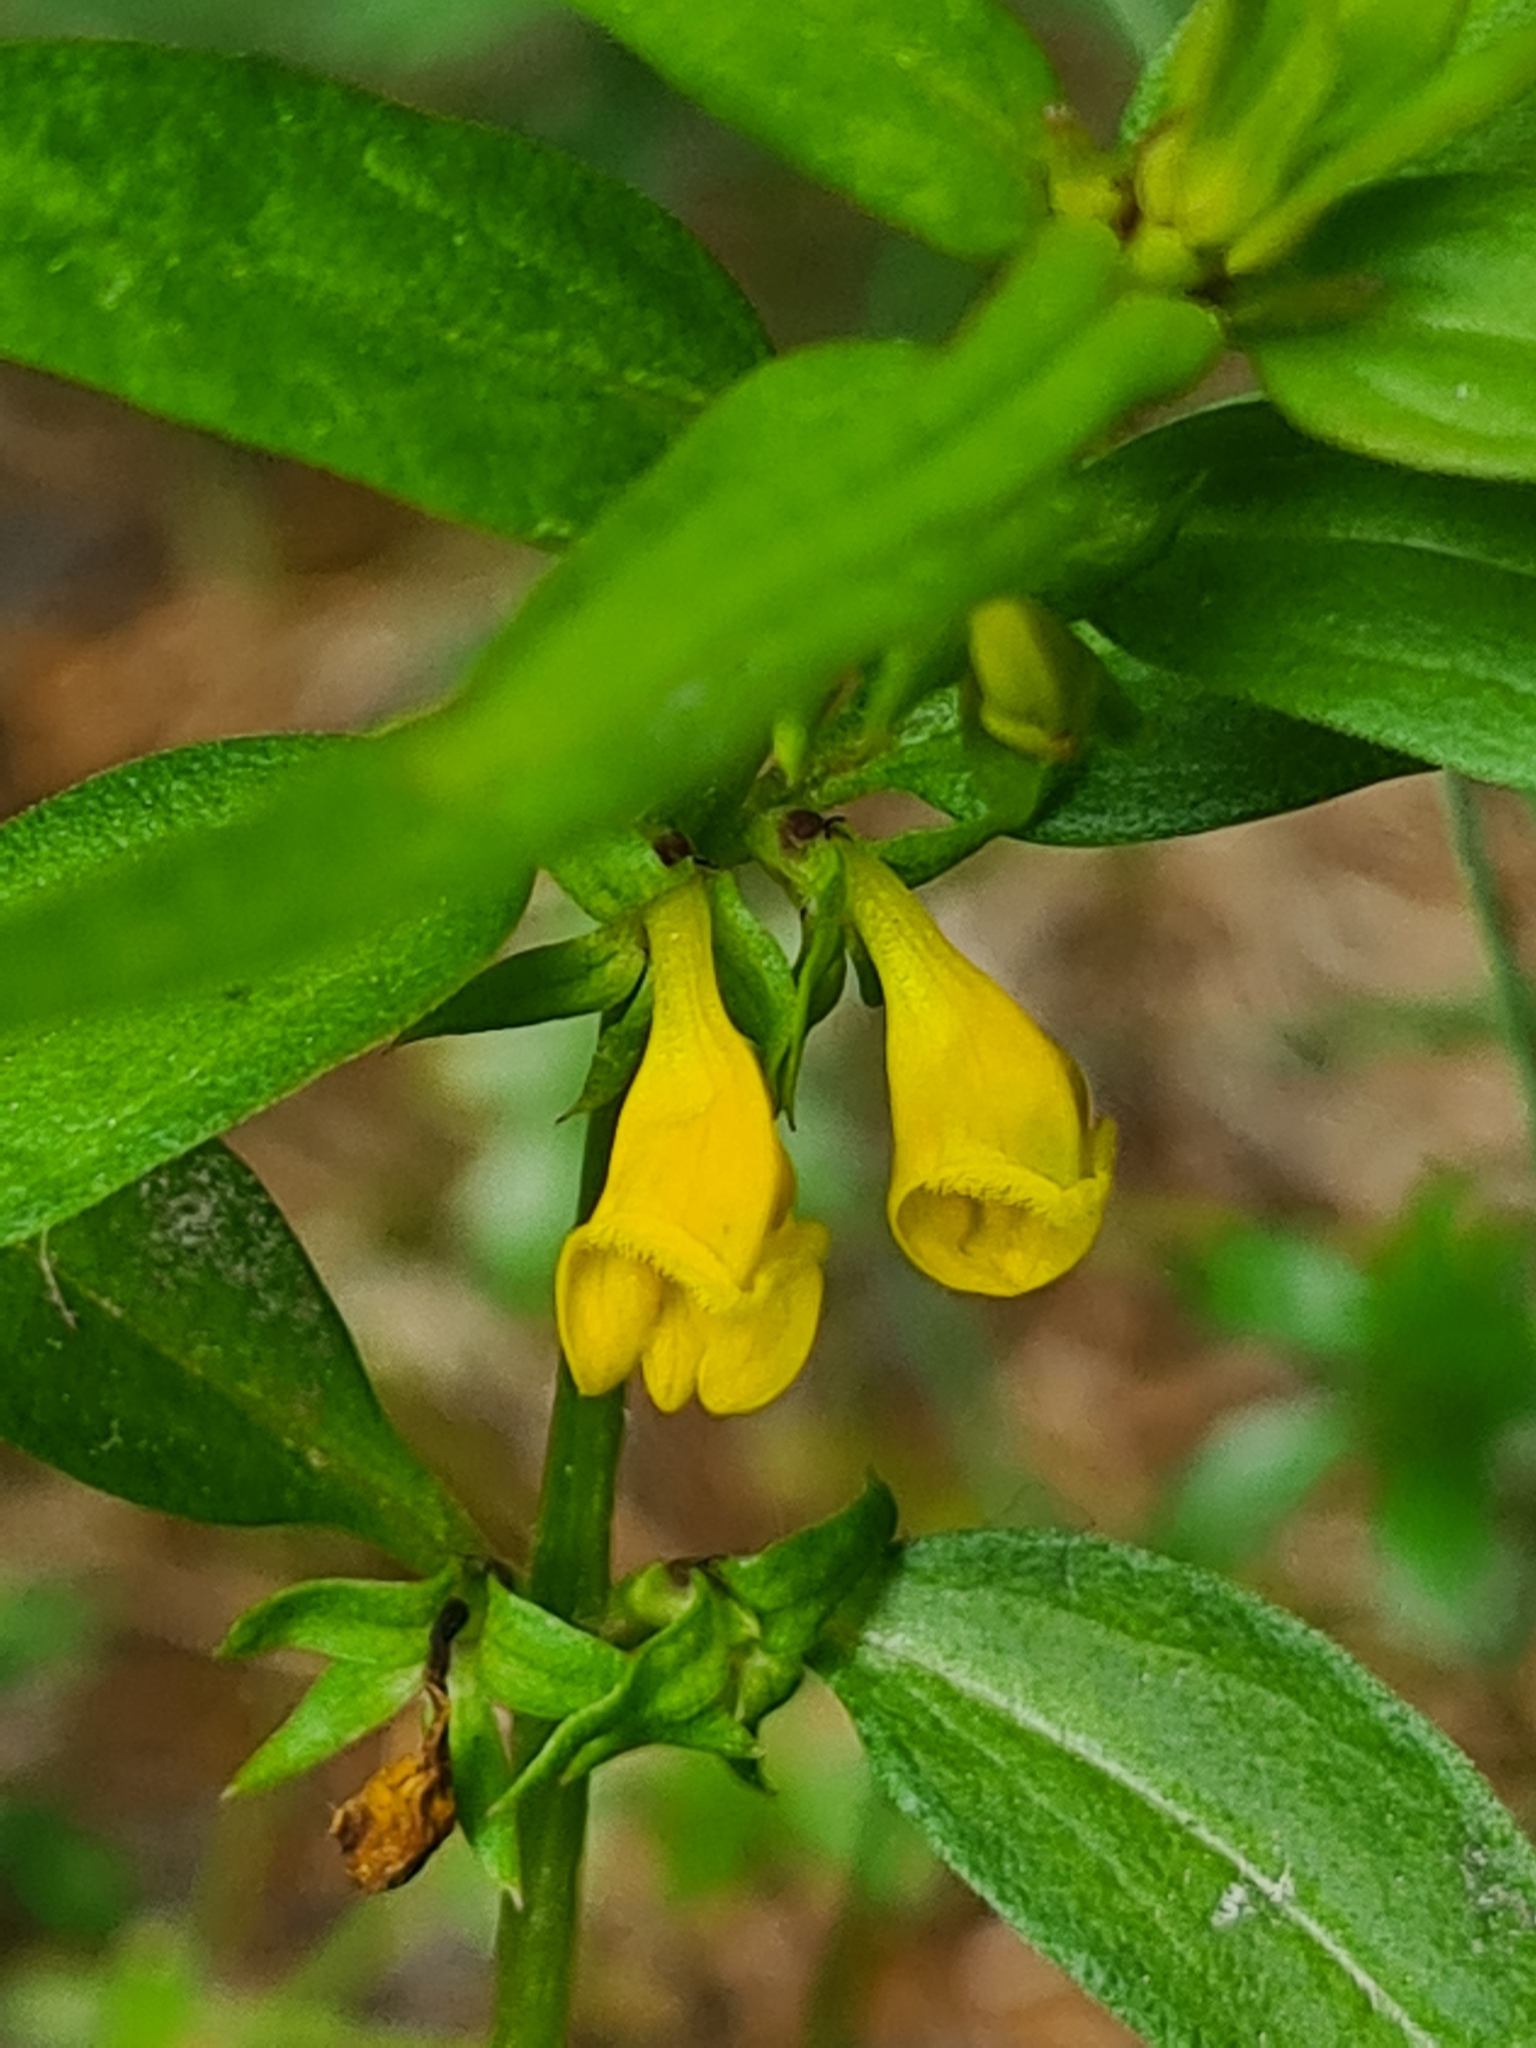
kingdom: Plantae
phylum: Tracheophyta
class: Magnoliopsida
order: Lamiales
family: Orobanchaceae
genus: Melampyrum
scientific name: Melampyrum sylvaticum
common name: Small cow-wheat
